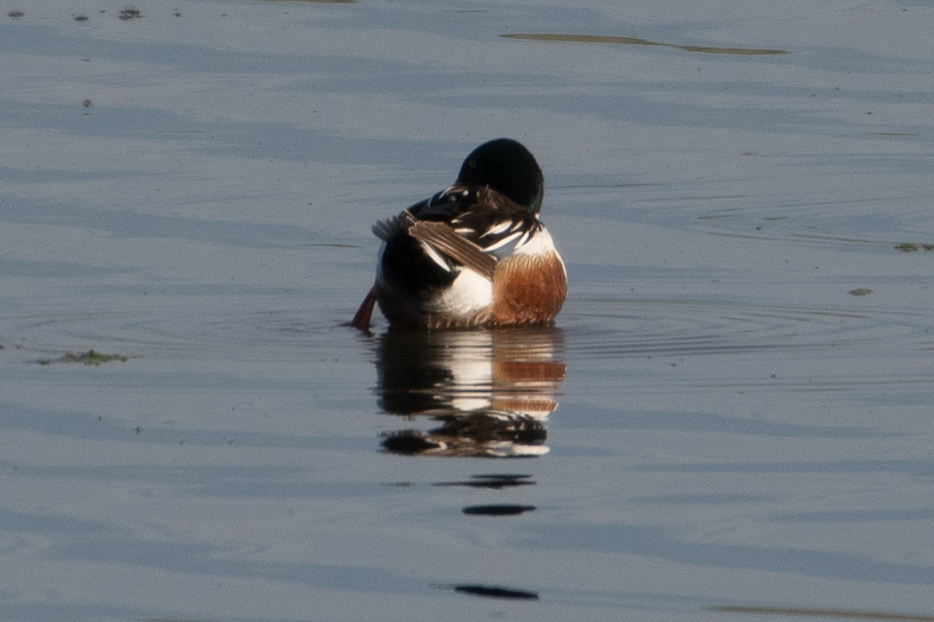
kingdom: Animalia
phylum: Chordata
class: Aves
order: Anseriformes
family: Anatidae
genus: Spatula
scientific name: Spatula clypeata
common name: Northern shoveler
